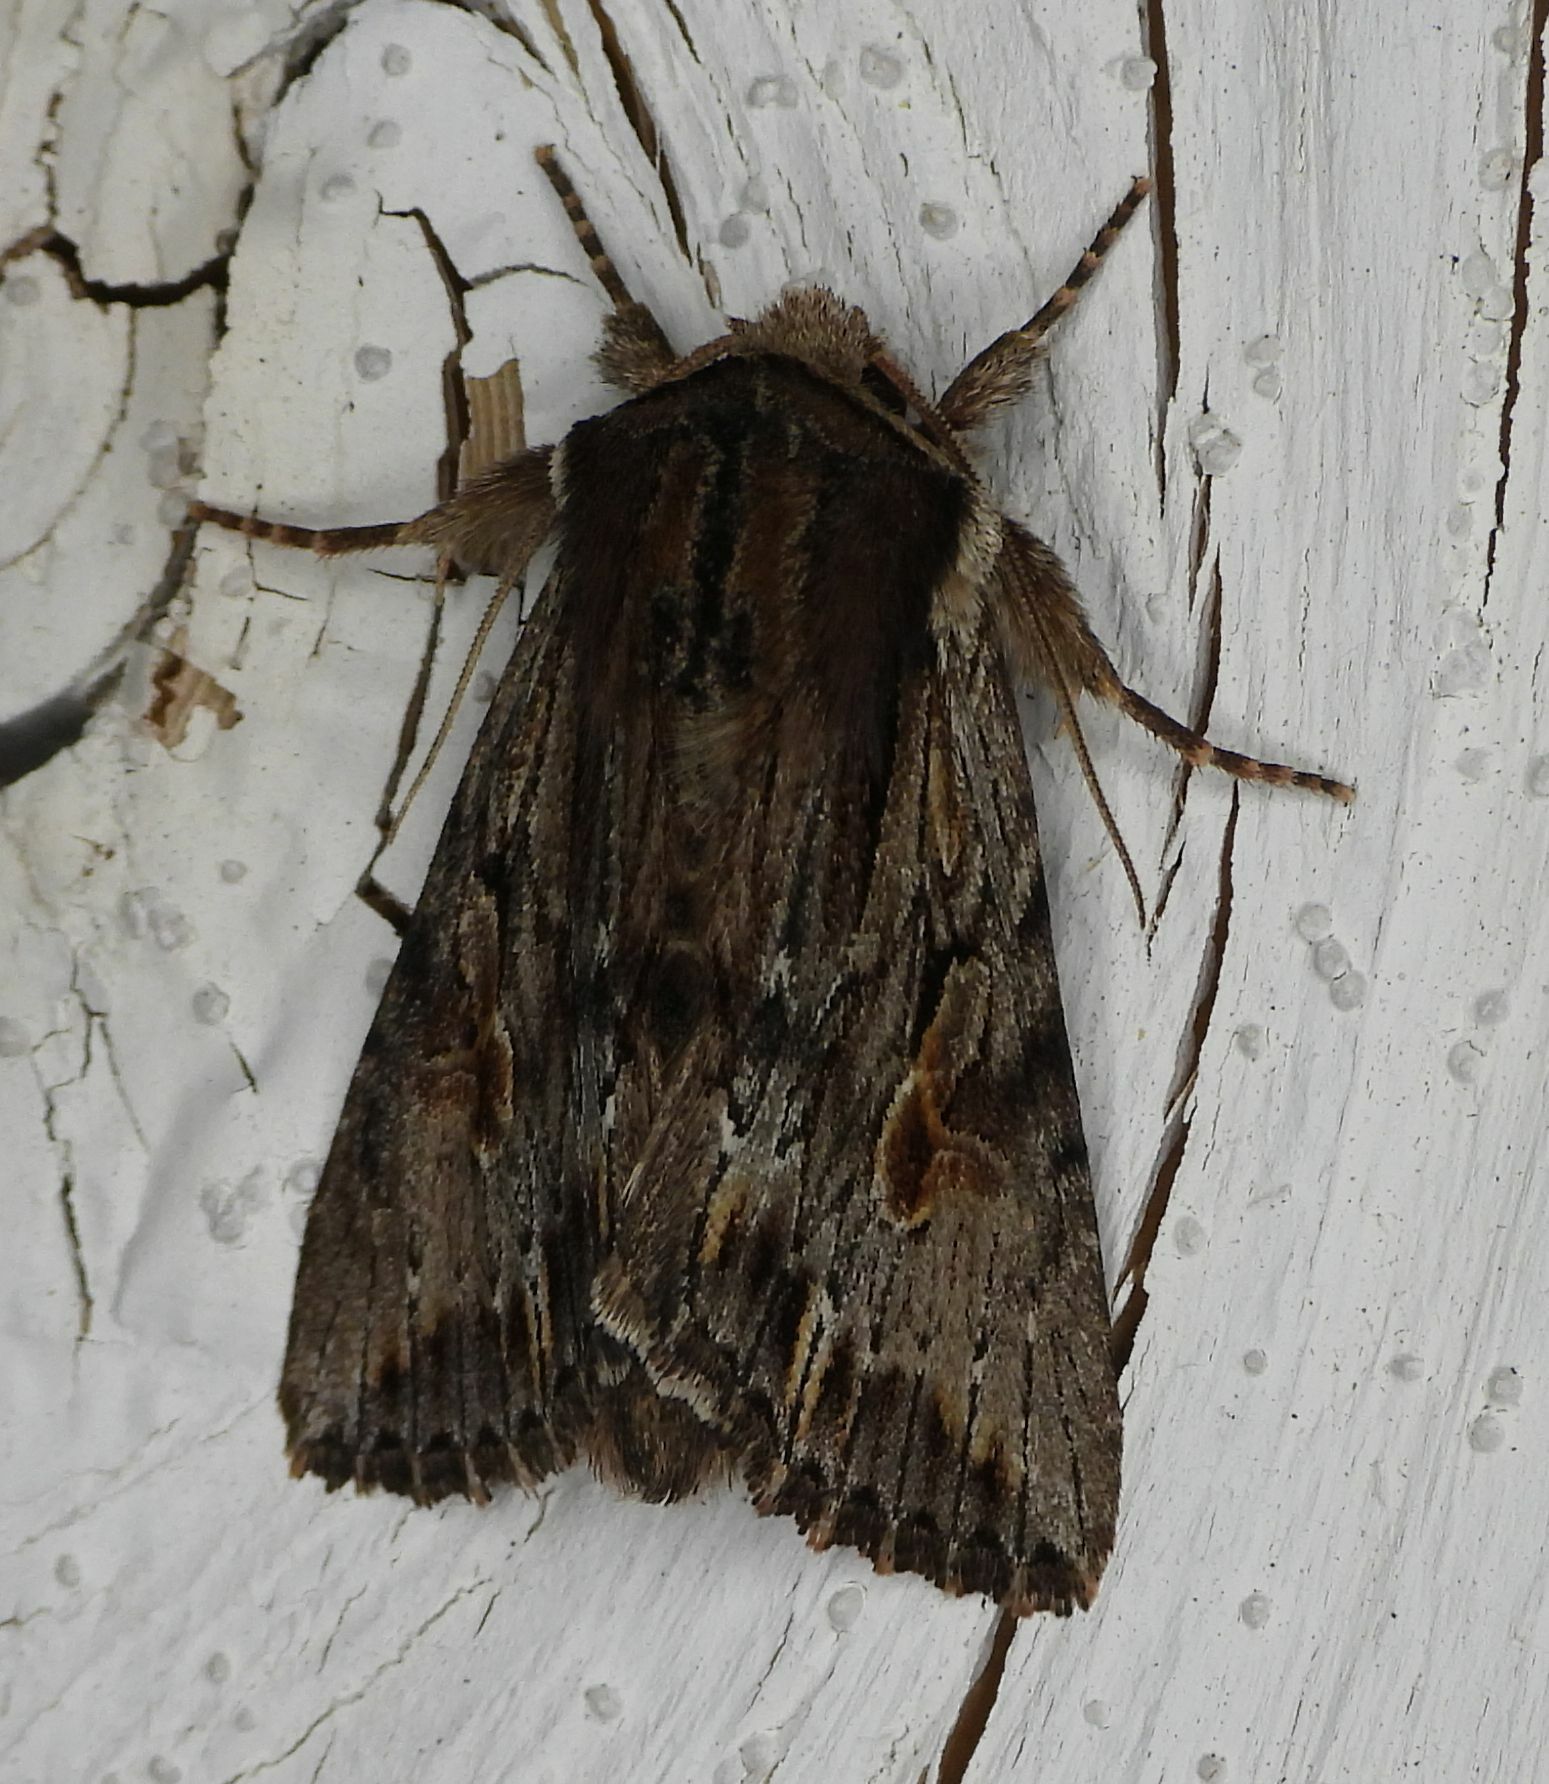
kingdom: Animalia
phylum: Arthropoda
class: Insecta
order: Lepidoptera
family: Noctuidae
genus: Achatia
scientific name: Achatia evicta
